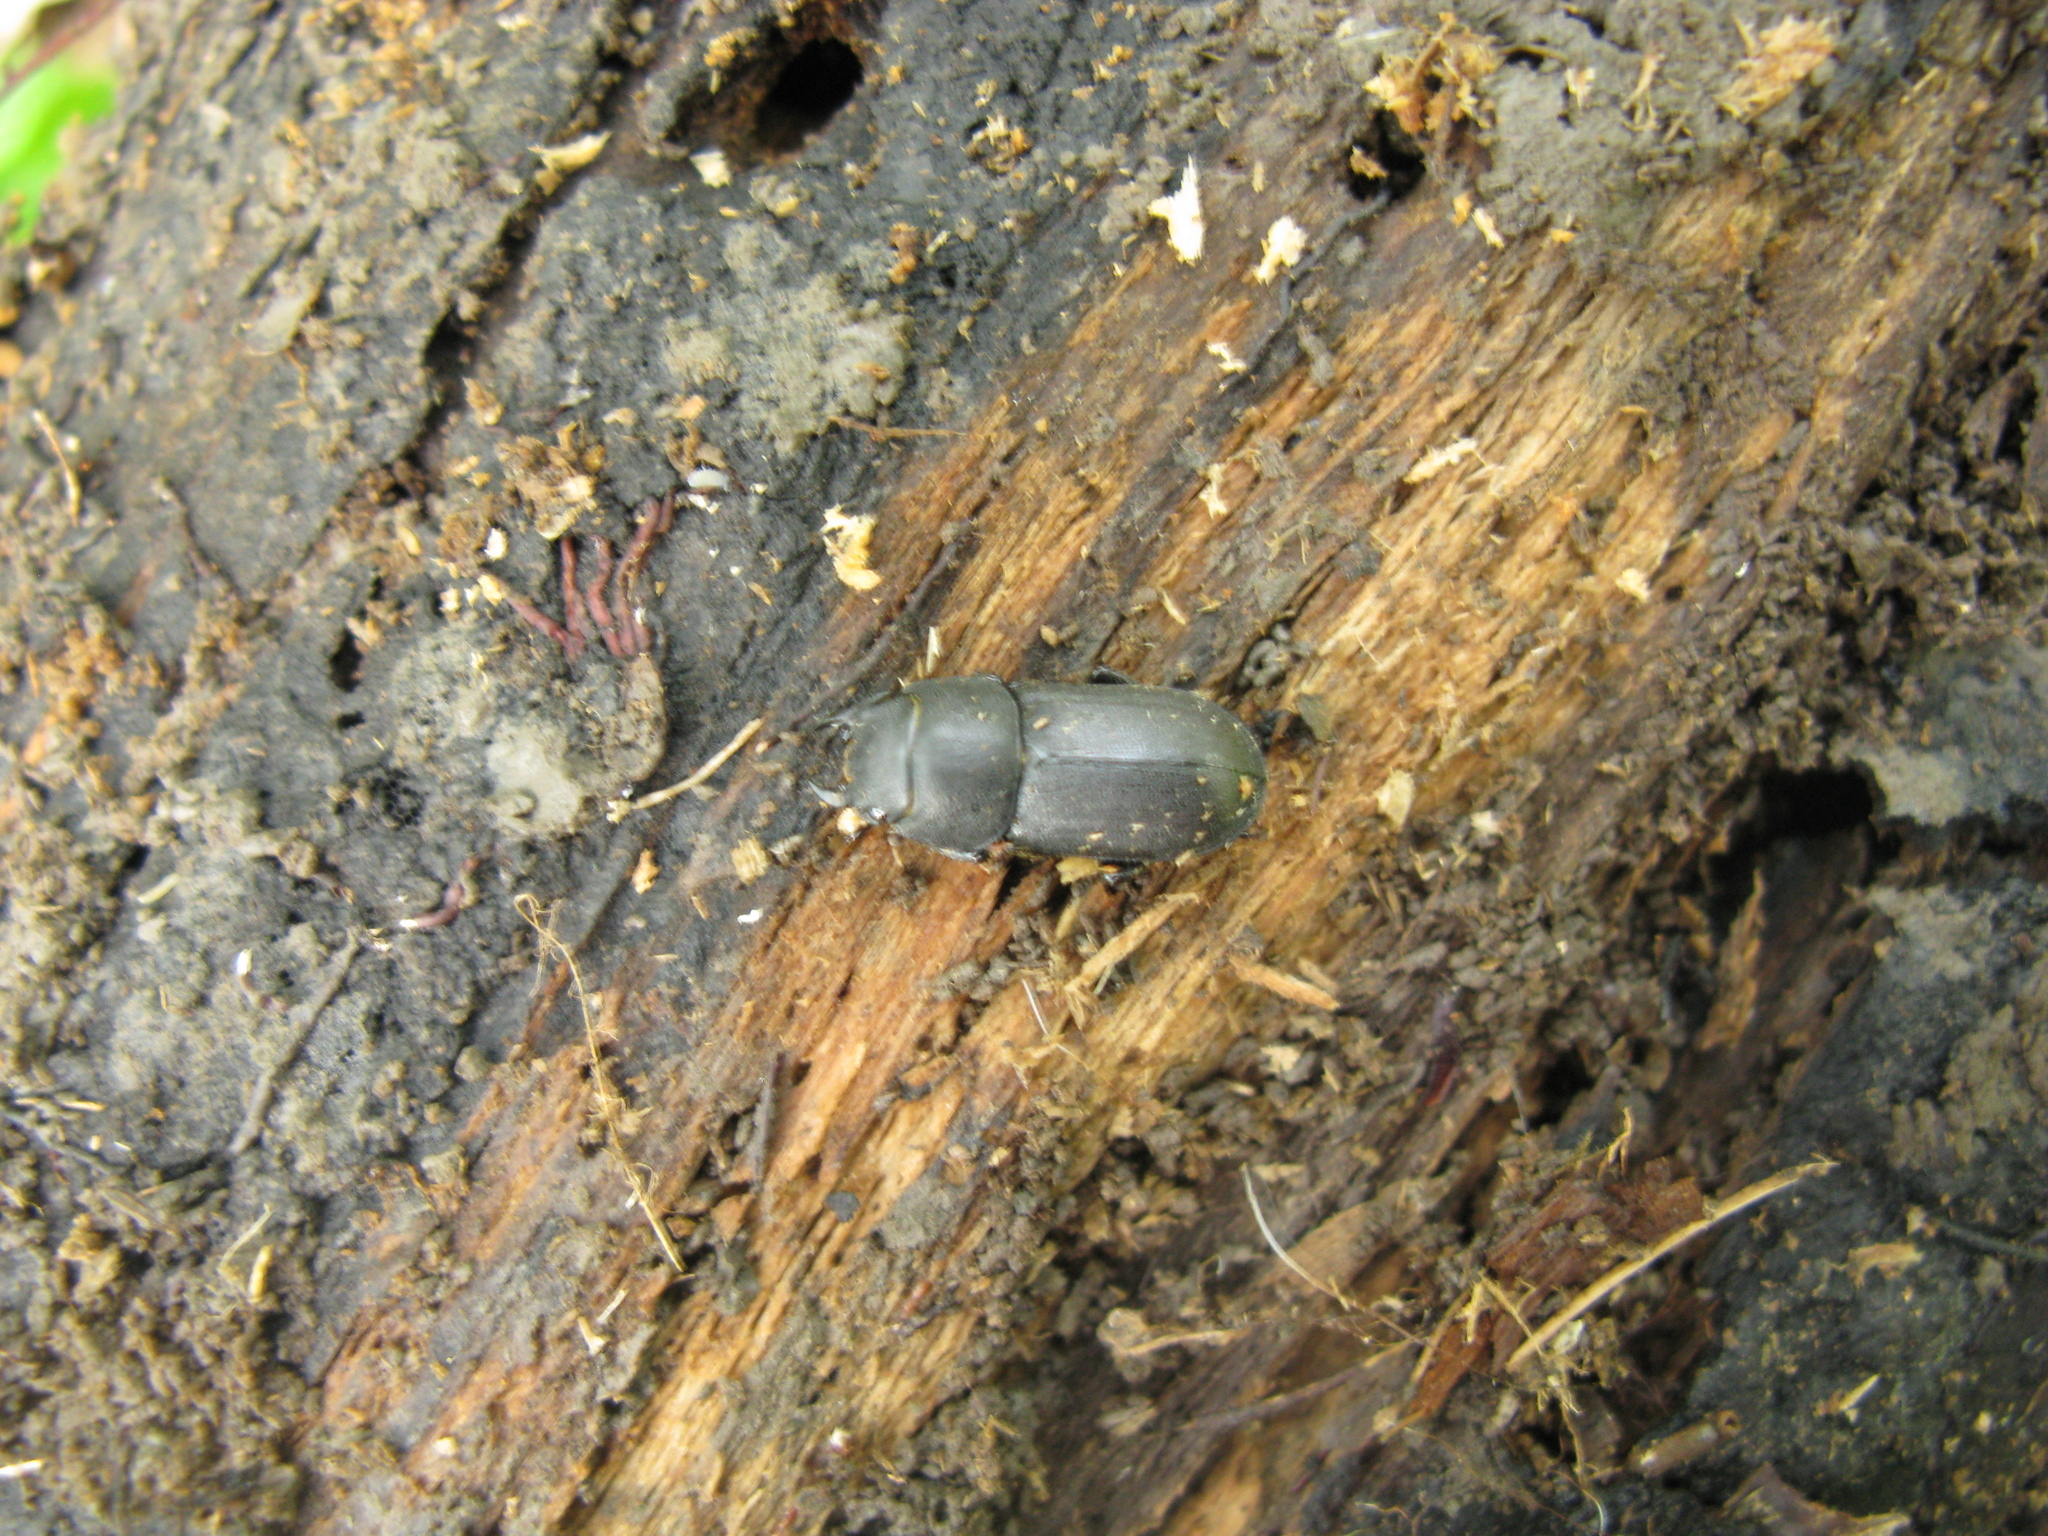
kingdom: Animalia
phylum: Arthropoda
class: Insecta
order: Coleoptera
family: Lucanidae
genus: Dorcus
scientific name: Dorcus parallelipipedus
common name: Lesser stag beetle
